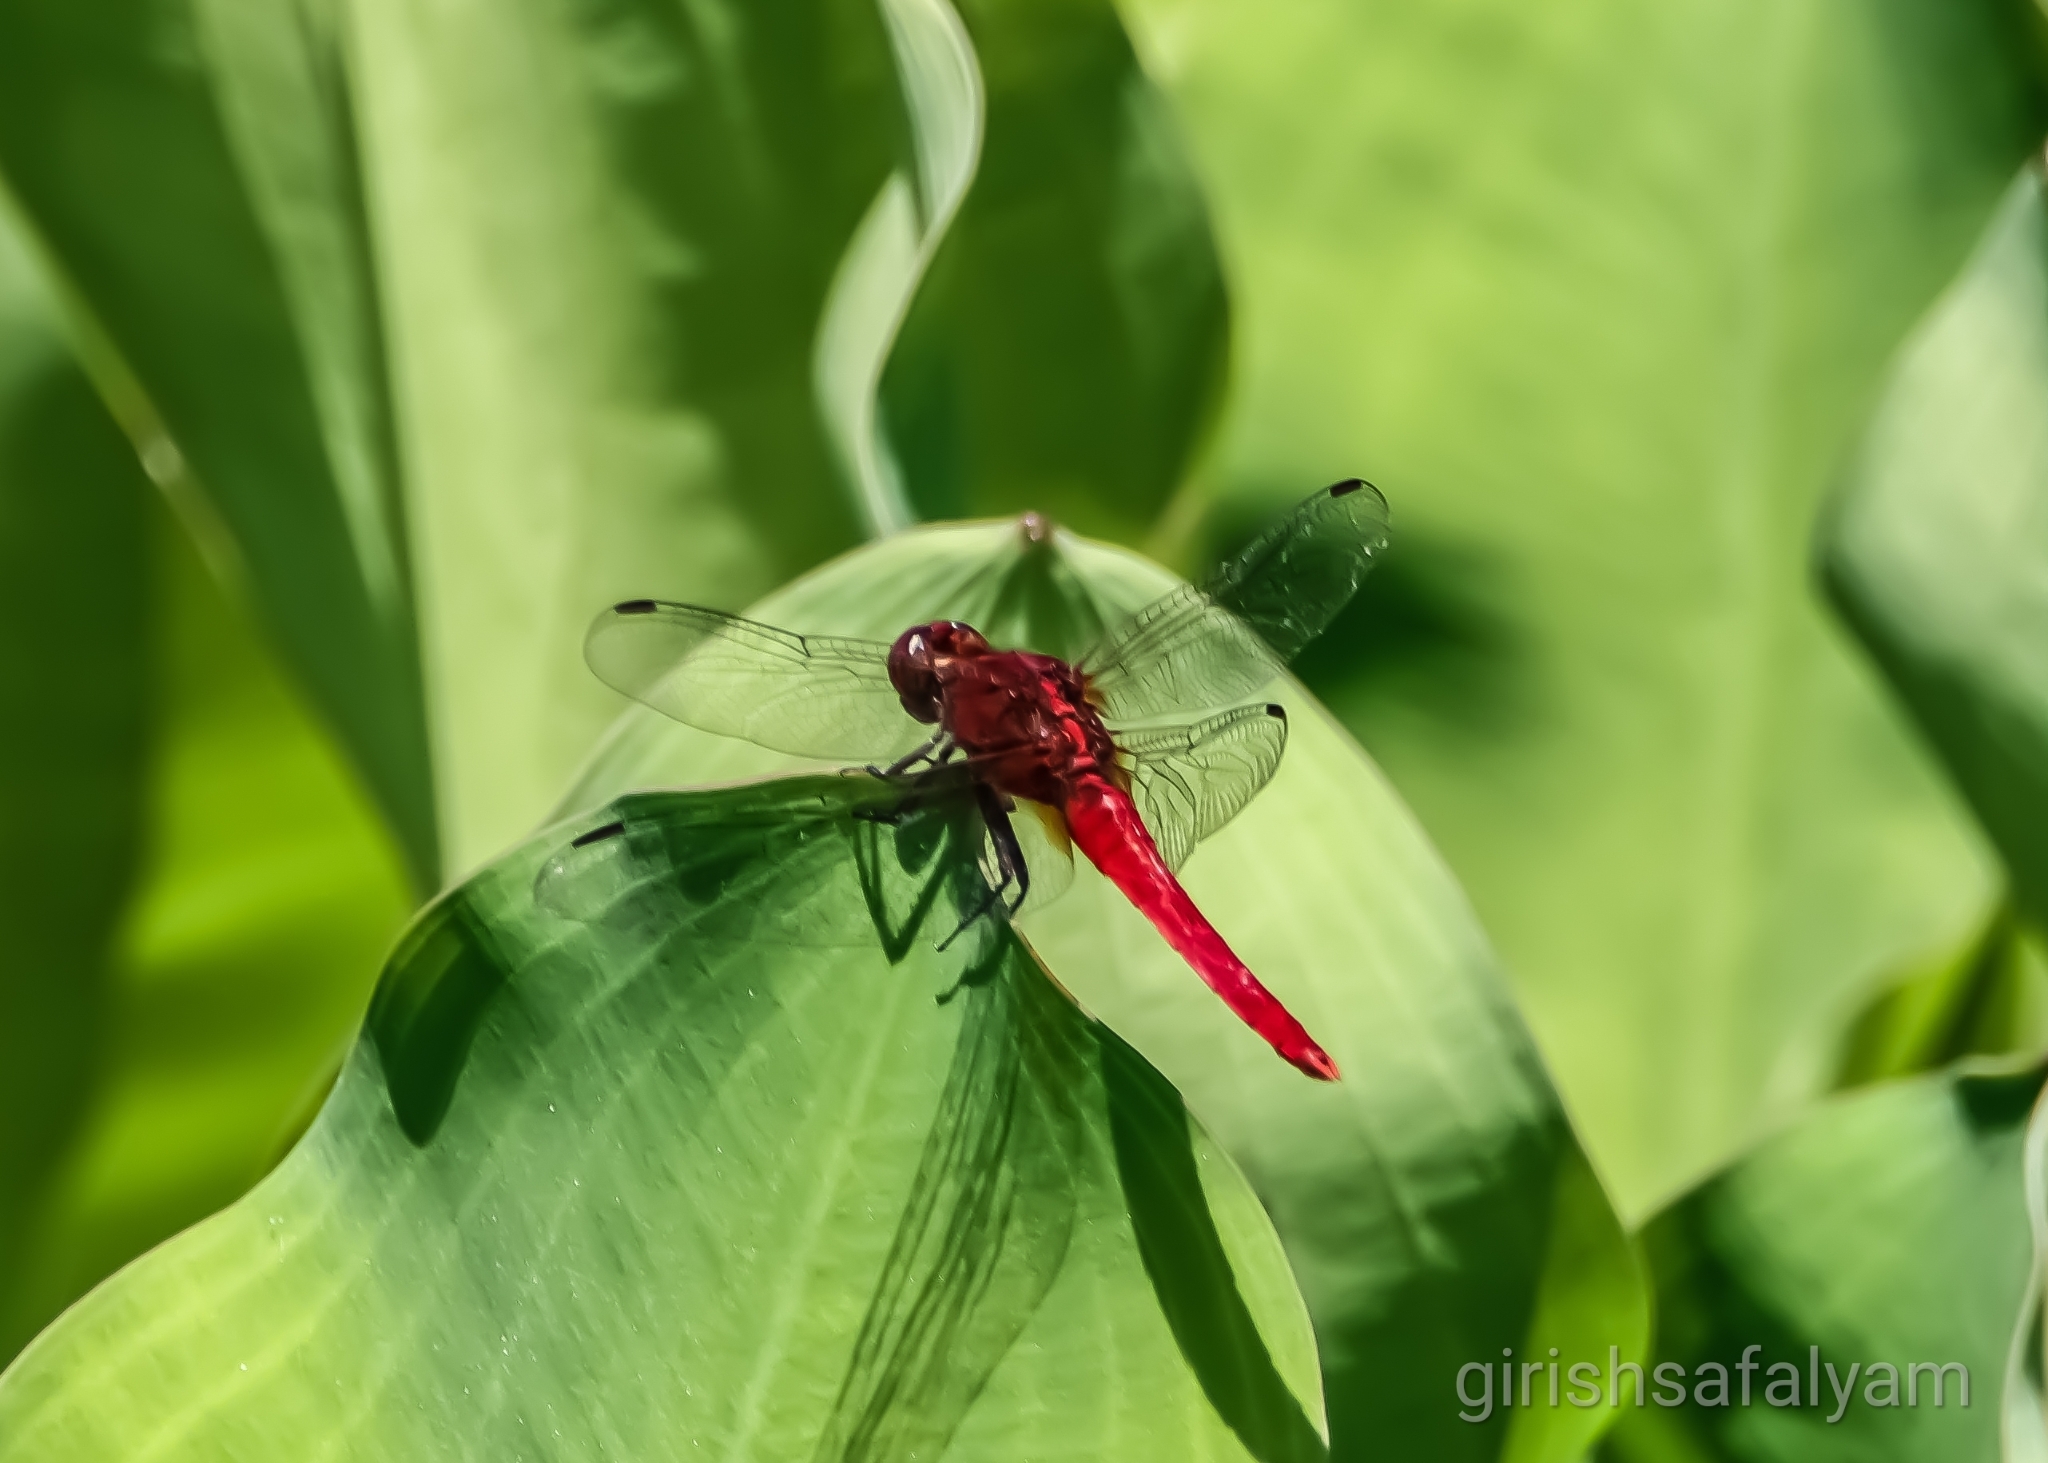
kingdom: Animalia
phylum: Arthropoda
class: Insecta
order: Odonata
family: Libellulidae
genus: Rhodothemis
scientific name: Rhodothemis rufa
